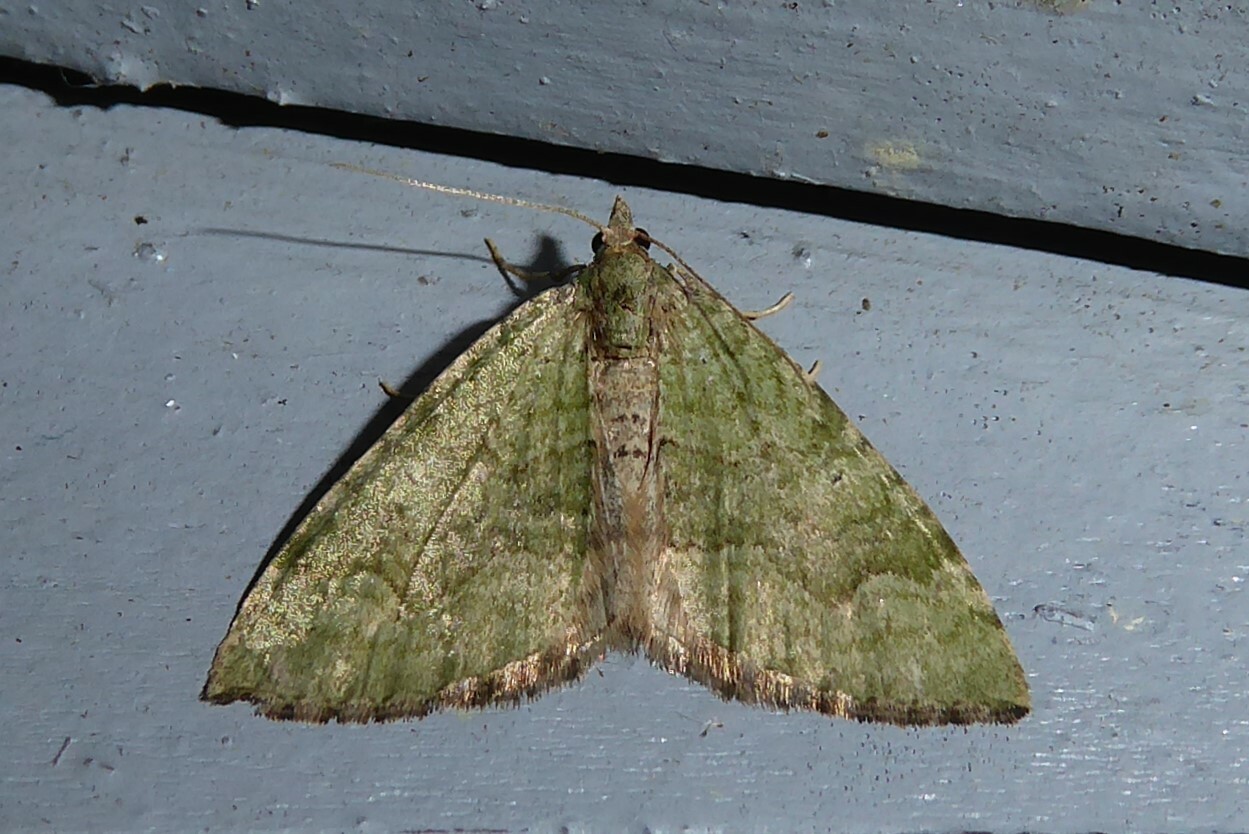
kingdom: Animalia
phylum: Arthropoda
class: Insecta
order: Lepidoptera
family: Geometridae
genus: Epyaxa
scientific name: Epyaxa rosearia
